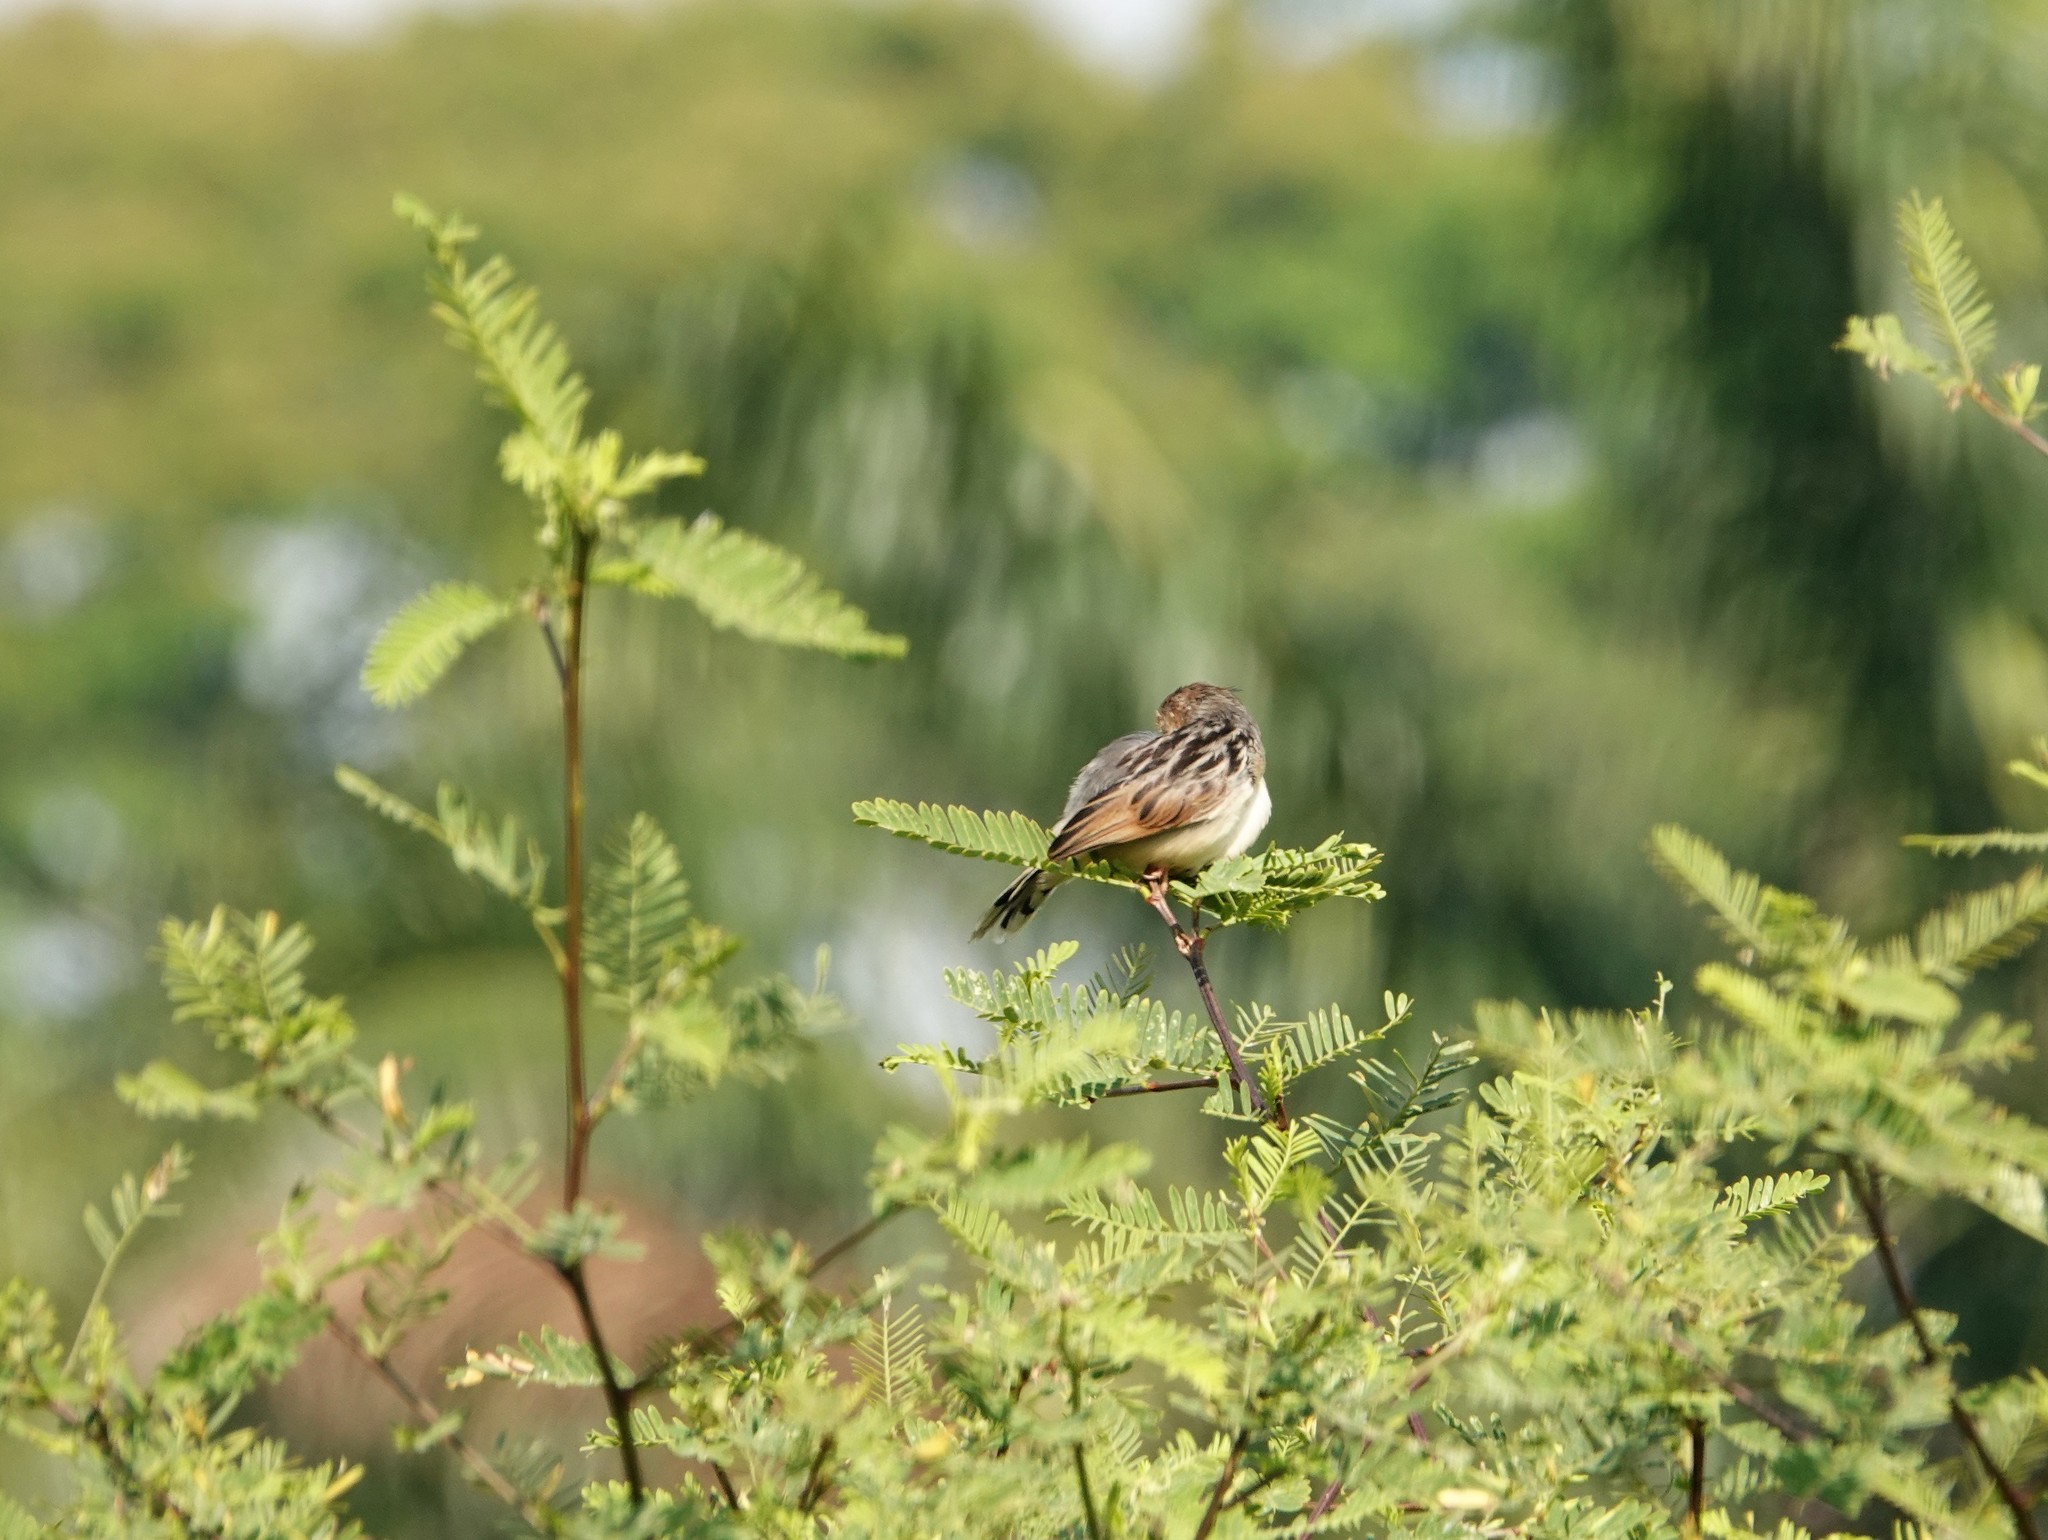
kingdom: Animalia
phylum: Chordata
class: Aves
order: Passeriformes
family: Cisticolidae
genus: Cisticola
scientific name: Cisticola marginatus
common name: Winding cisticola
